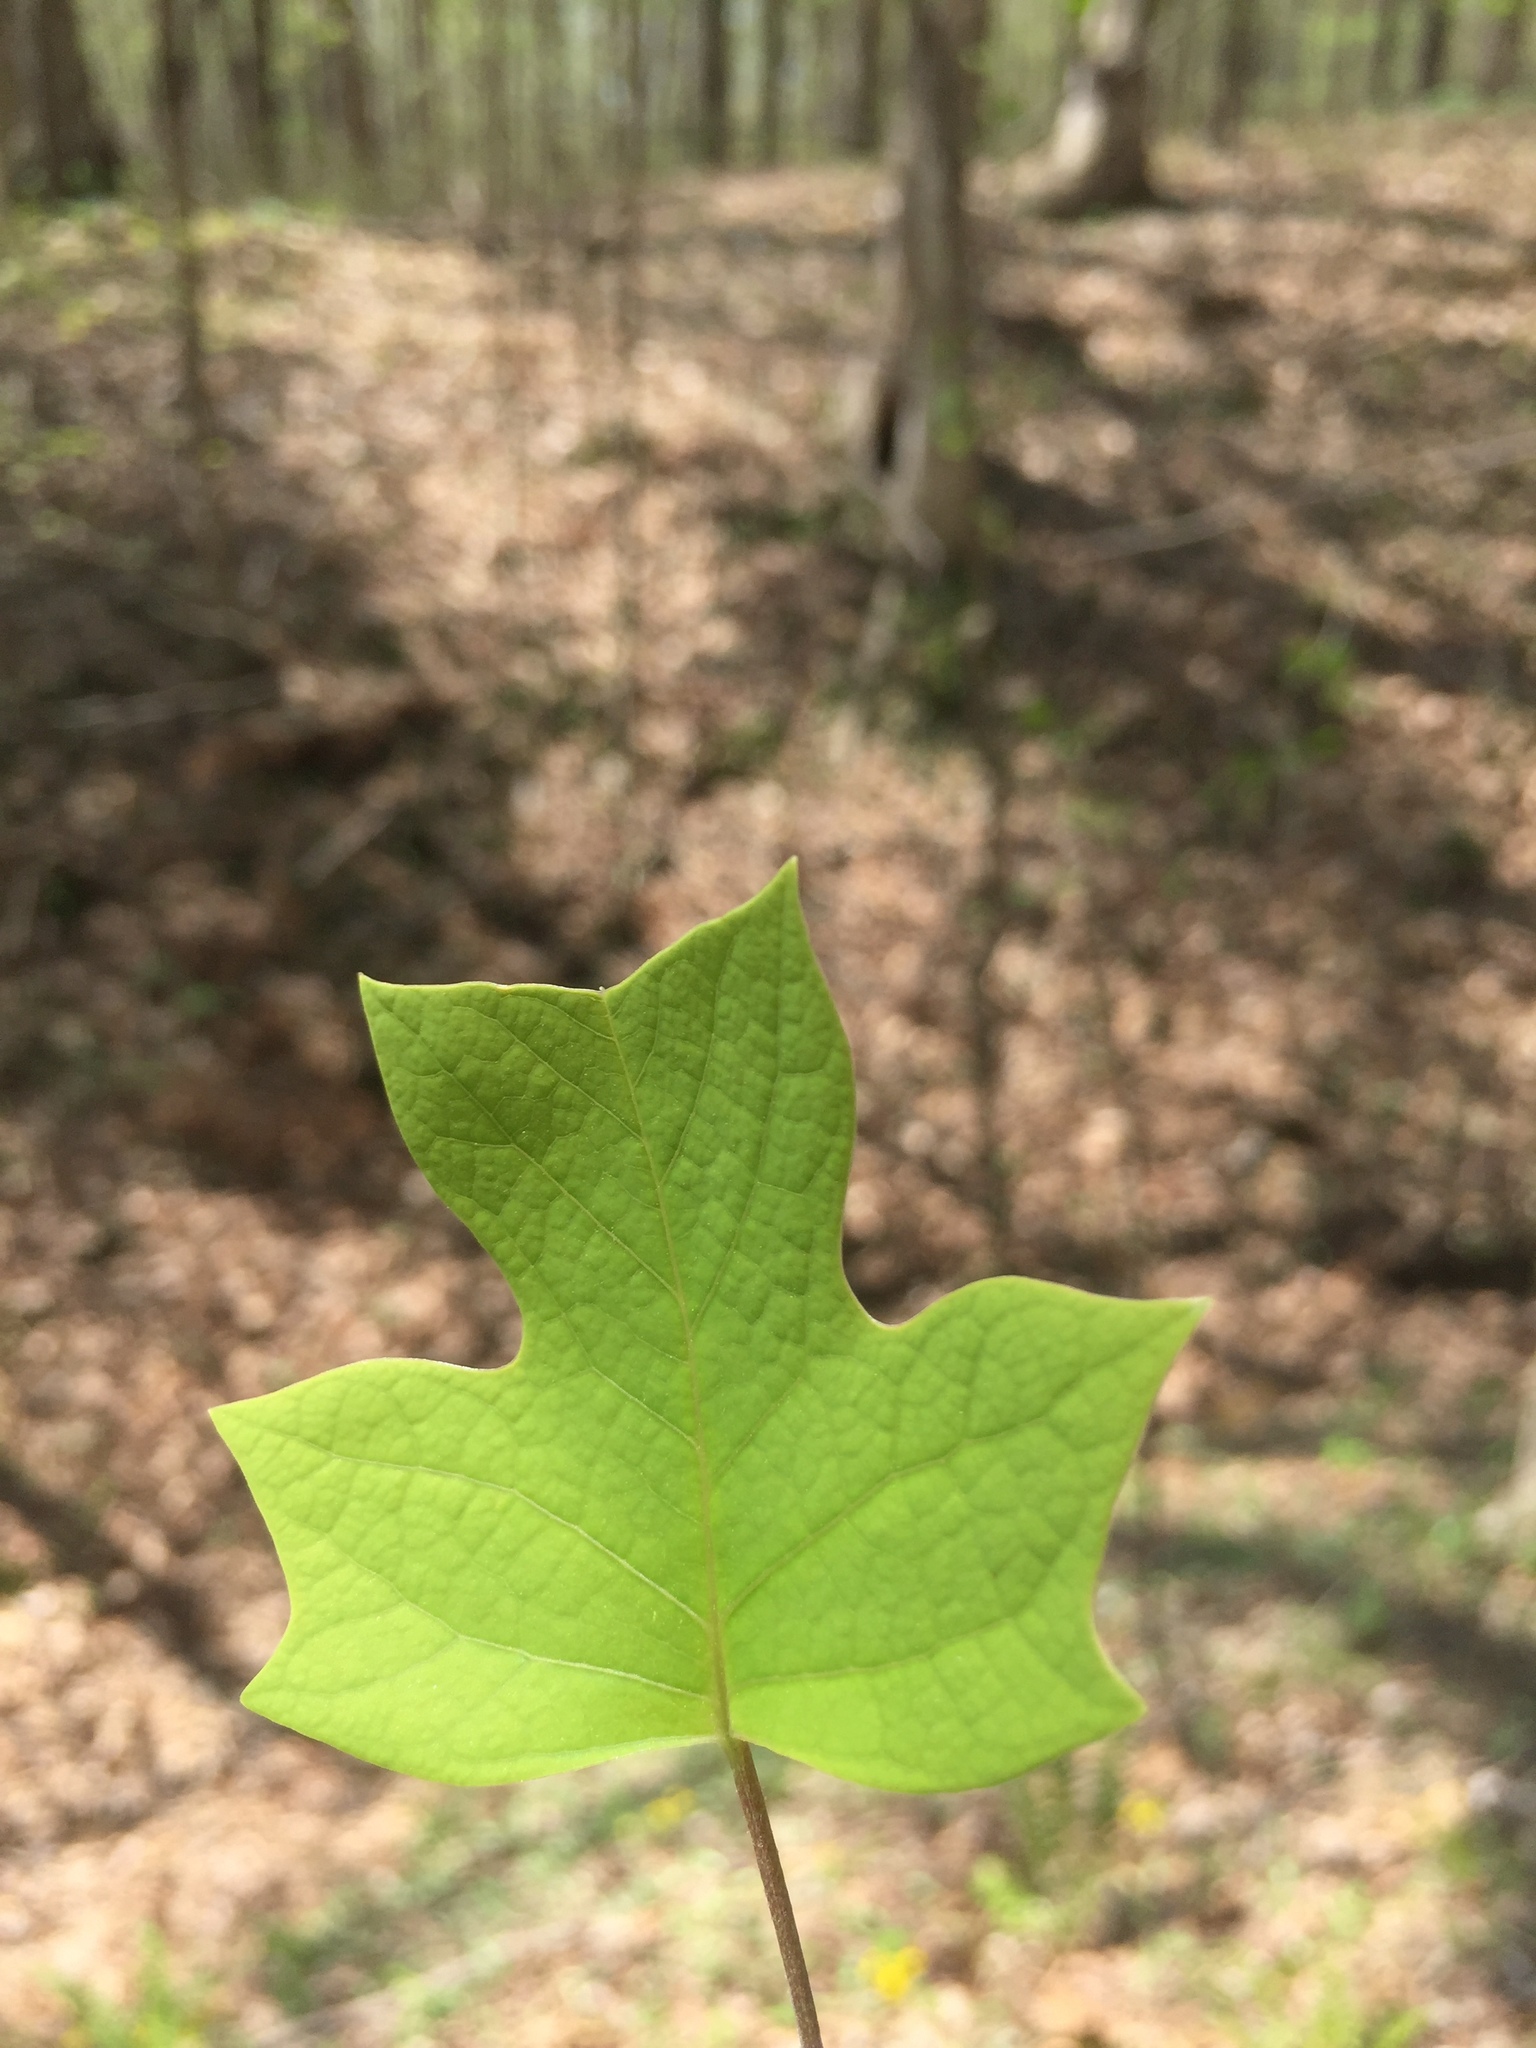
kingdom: Plantae
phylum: Tracheophyta
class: Magnoliopsida
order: Magnoliales
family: Magnoliaceae
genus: Liriodendron
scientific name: Liriodendron tulipifera
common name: Tulip tree
